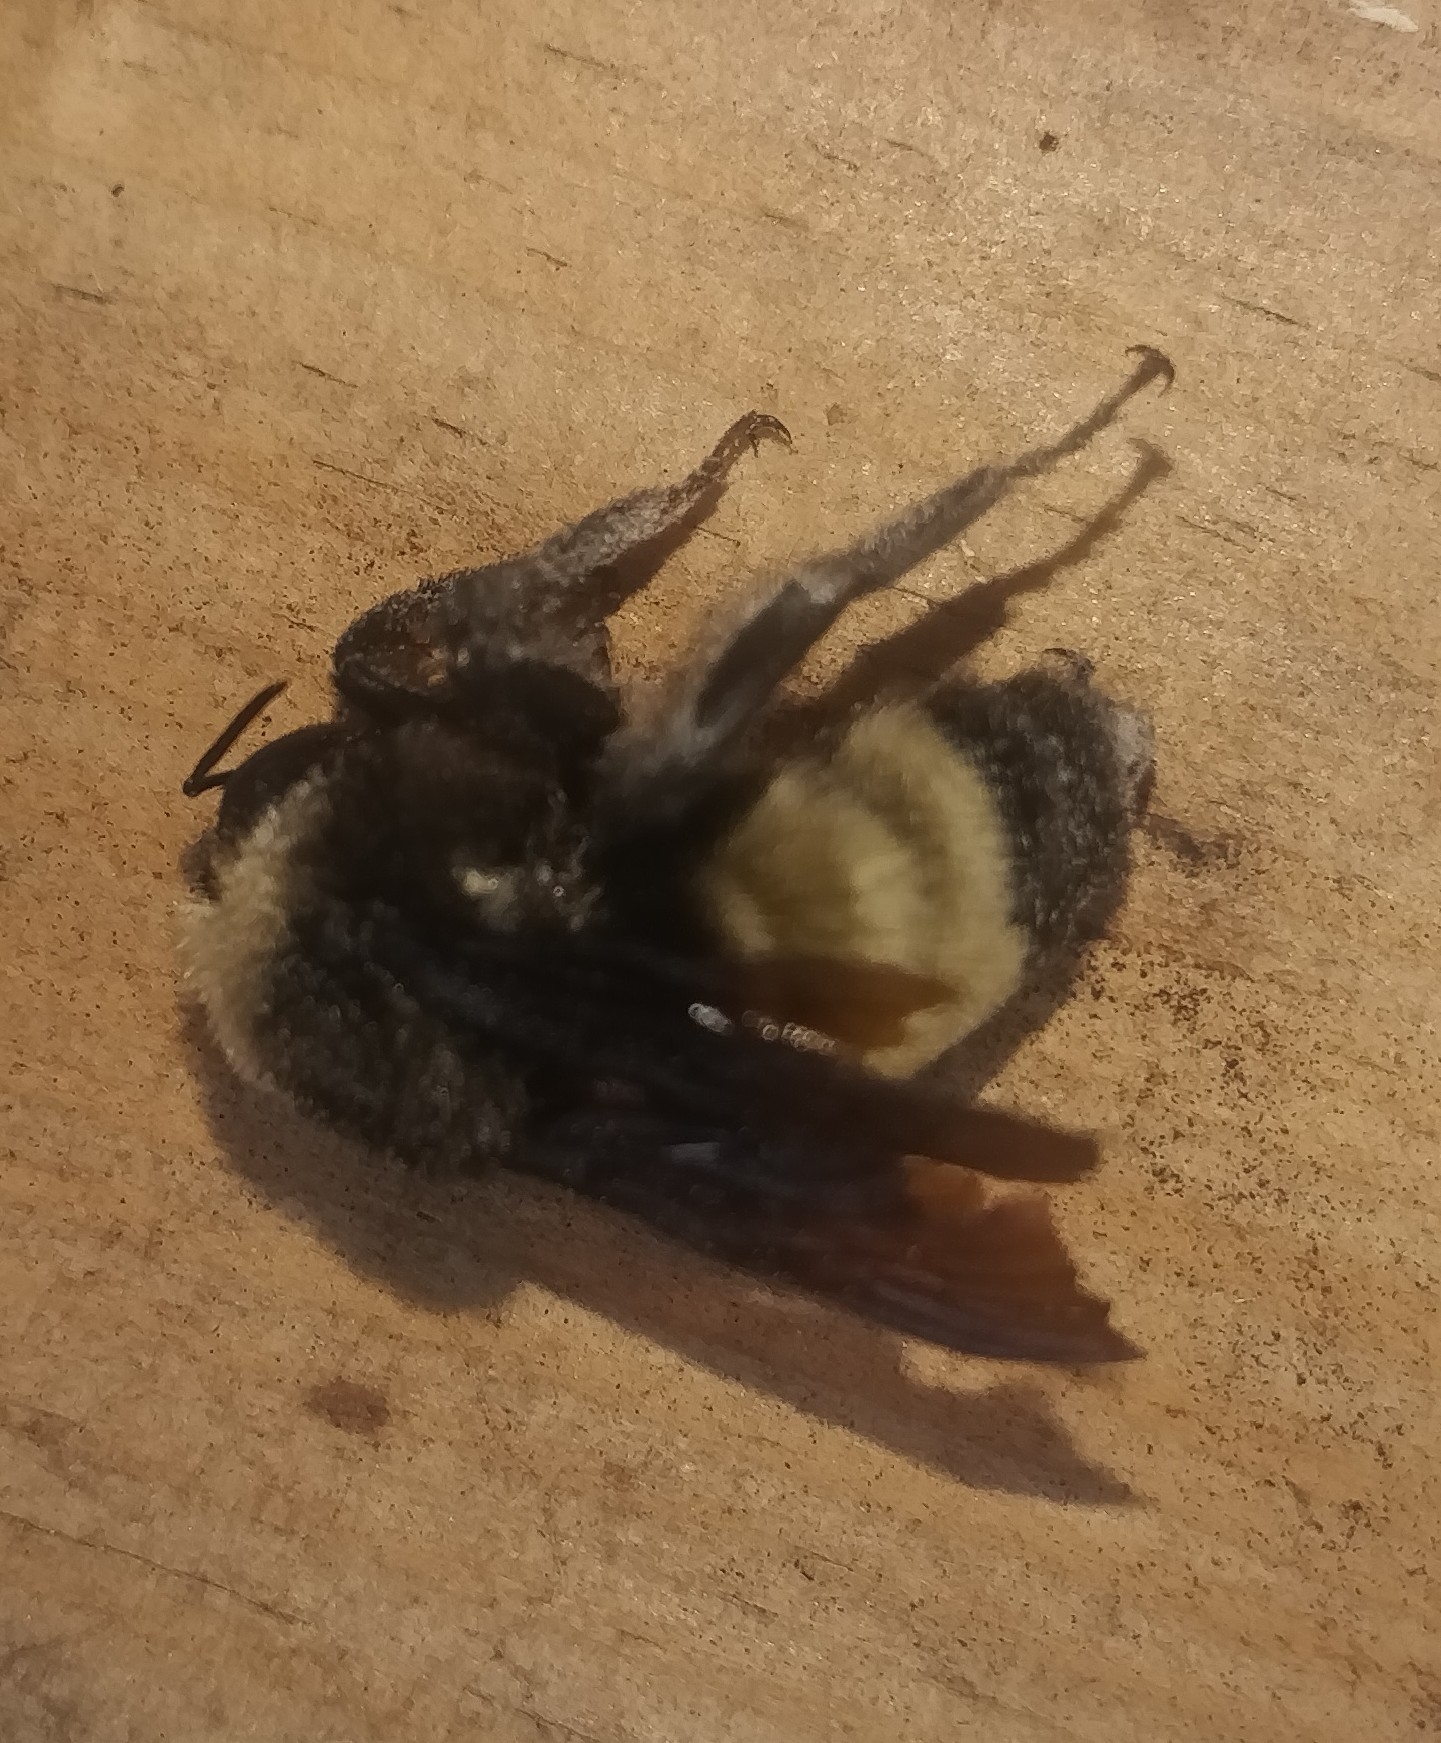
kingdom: Animalia
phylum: Arthropoda
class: Insecta
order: Hymenoptera
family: Apidae
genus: Bombus
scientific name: Bombus pensylvanicus
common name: Bumble bee
